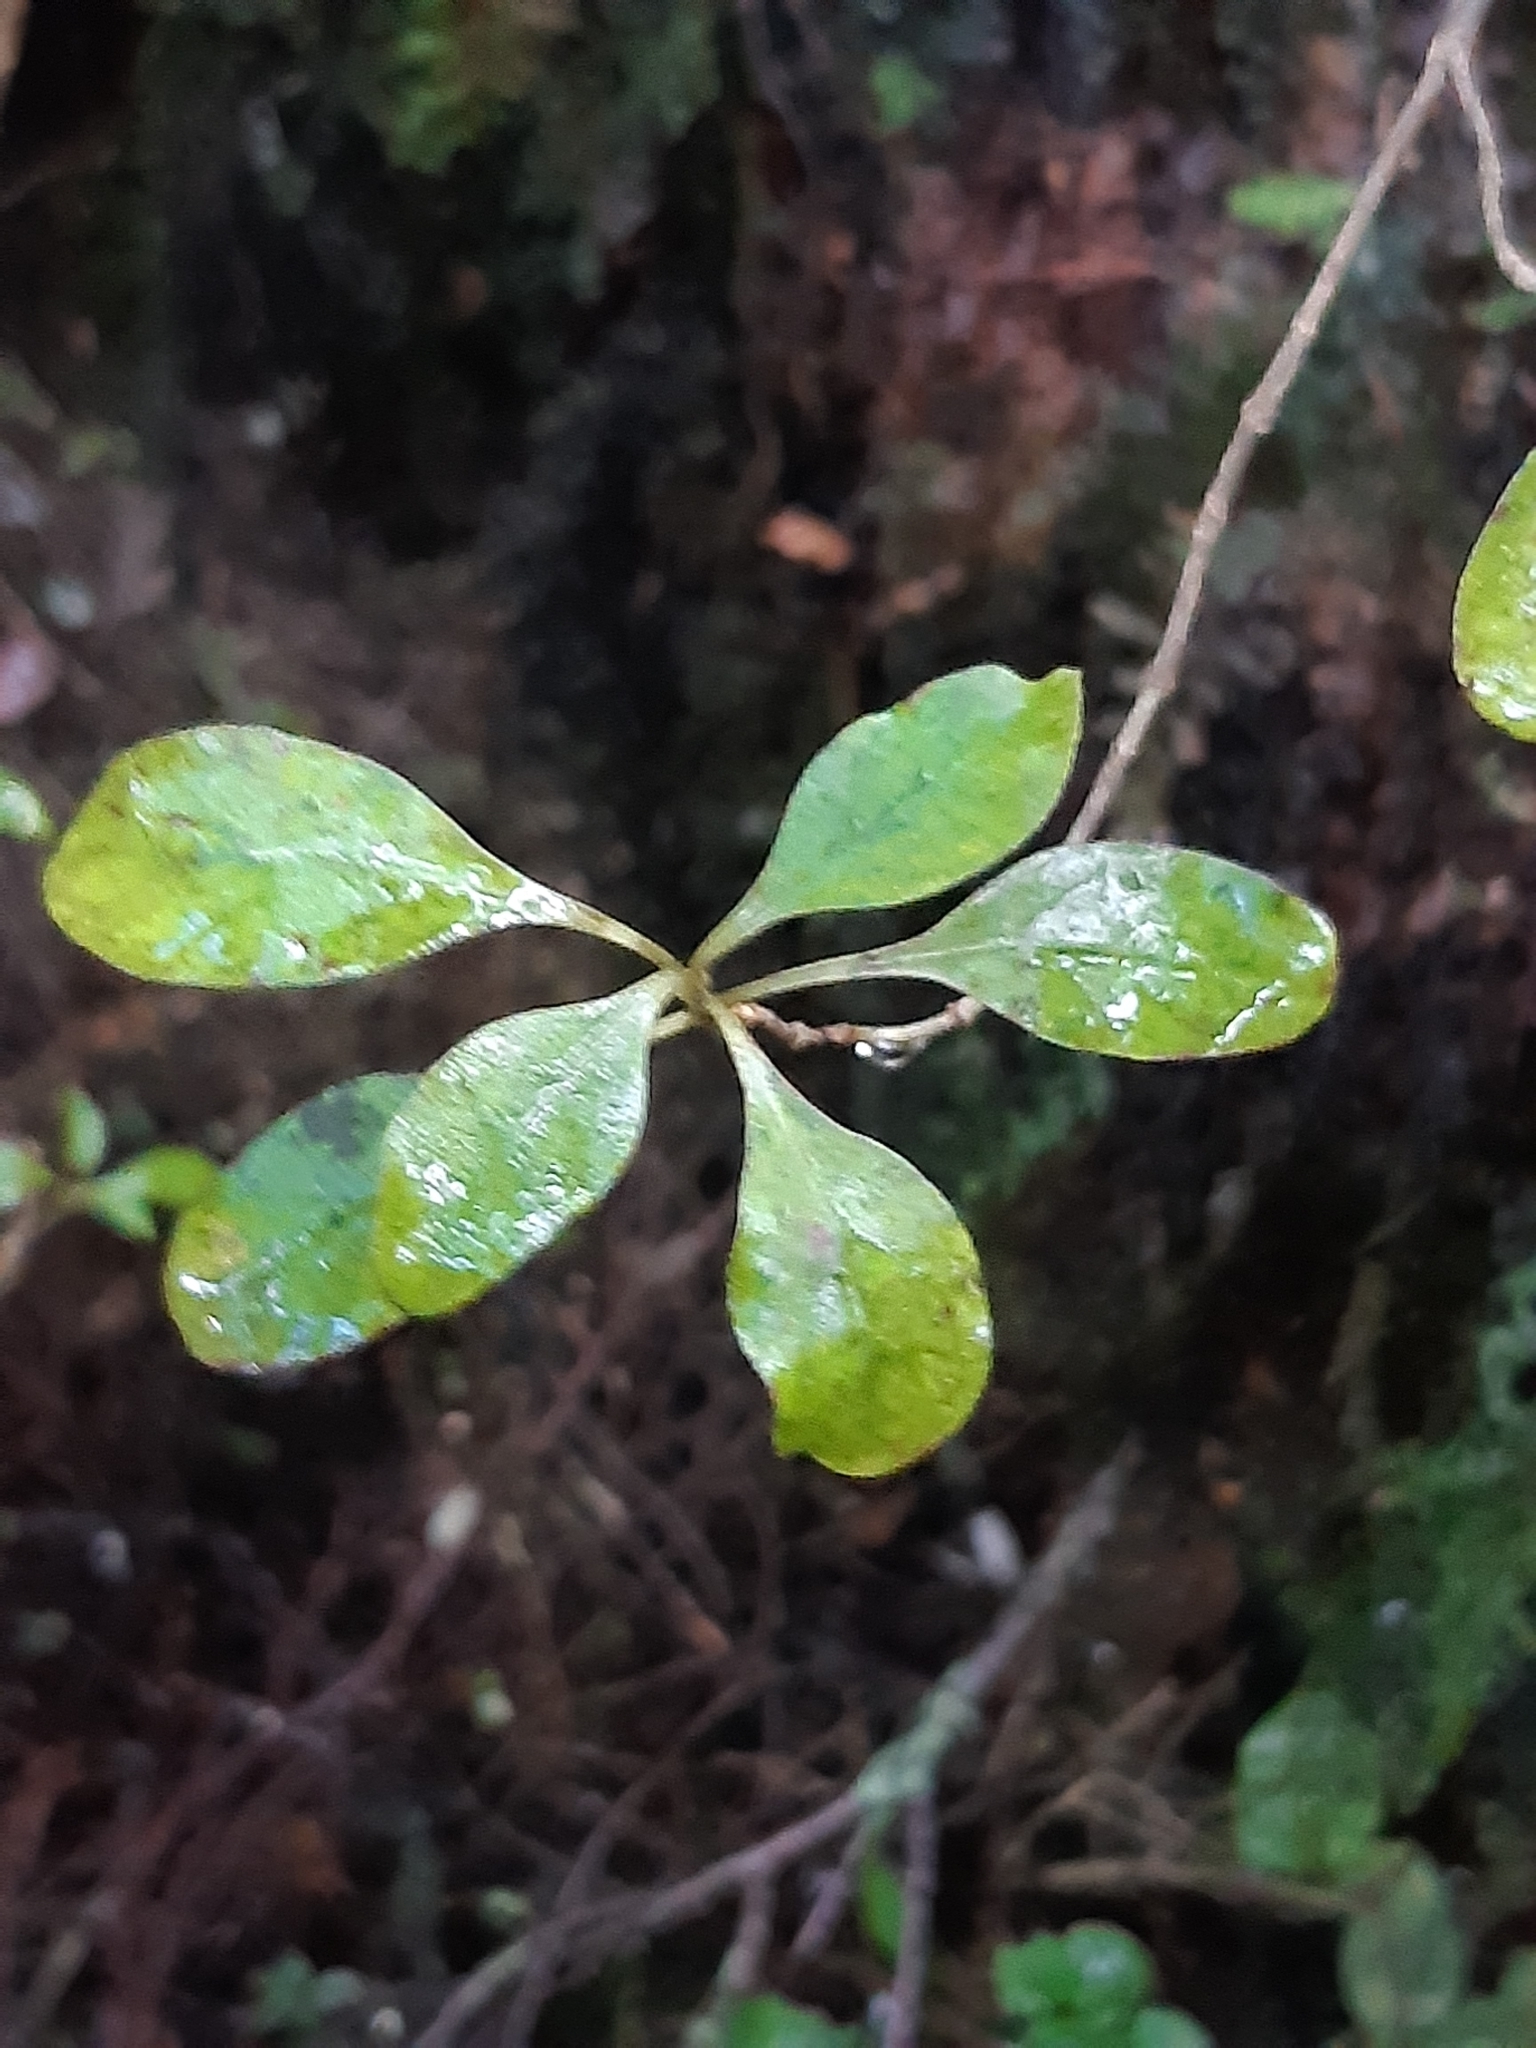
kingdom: Plantae
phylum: Tracheophyta
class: Magnoliopsida
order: Gentianales
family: Rubiaceae
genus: Coprosma
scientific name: Coprosma foetidissima
